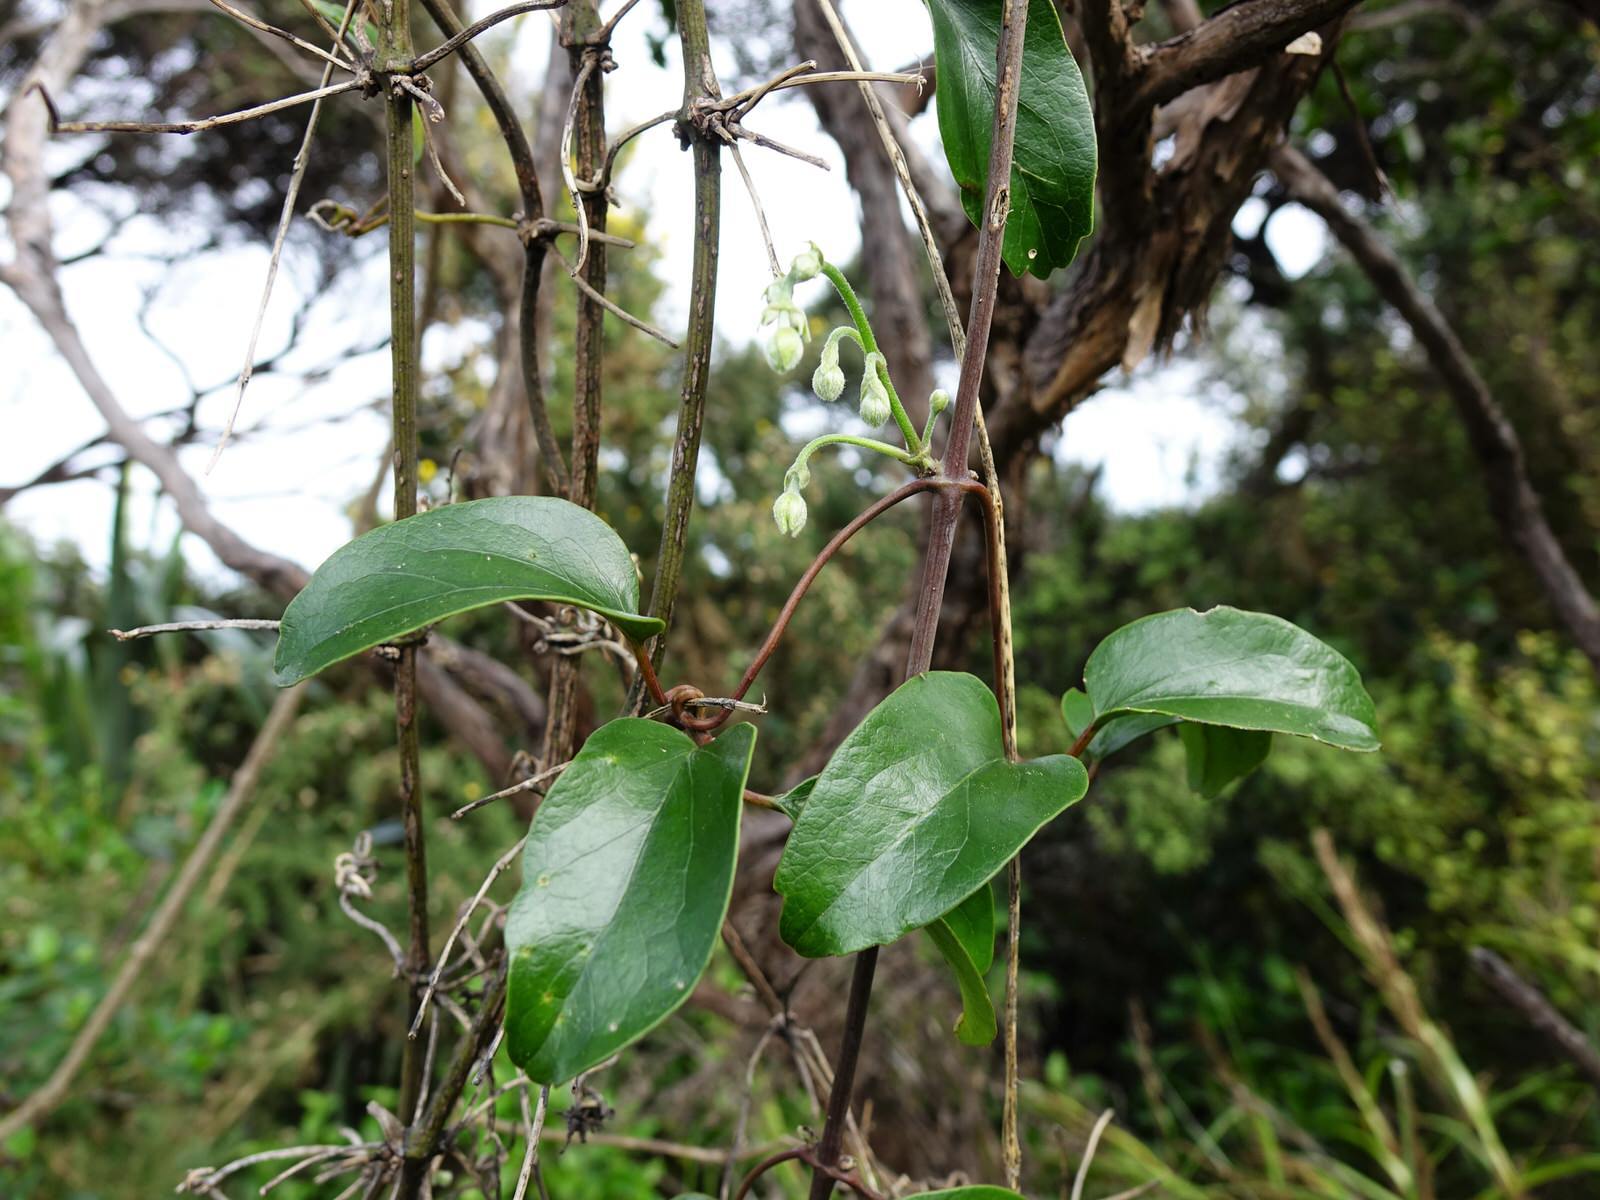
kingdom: Plantae
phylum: Tracheophyta
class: Magnoliopsida
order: Ranunculales
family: Ranunculaceae
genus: Clematis
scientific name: Clematis paniculata
